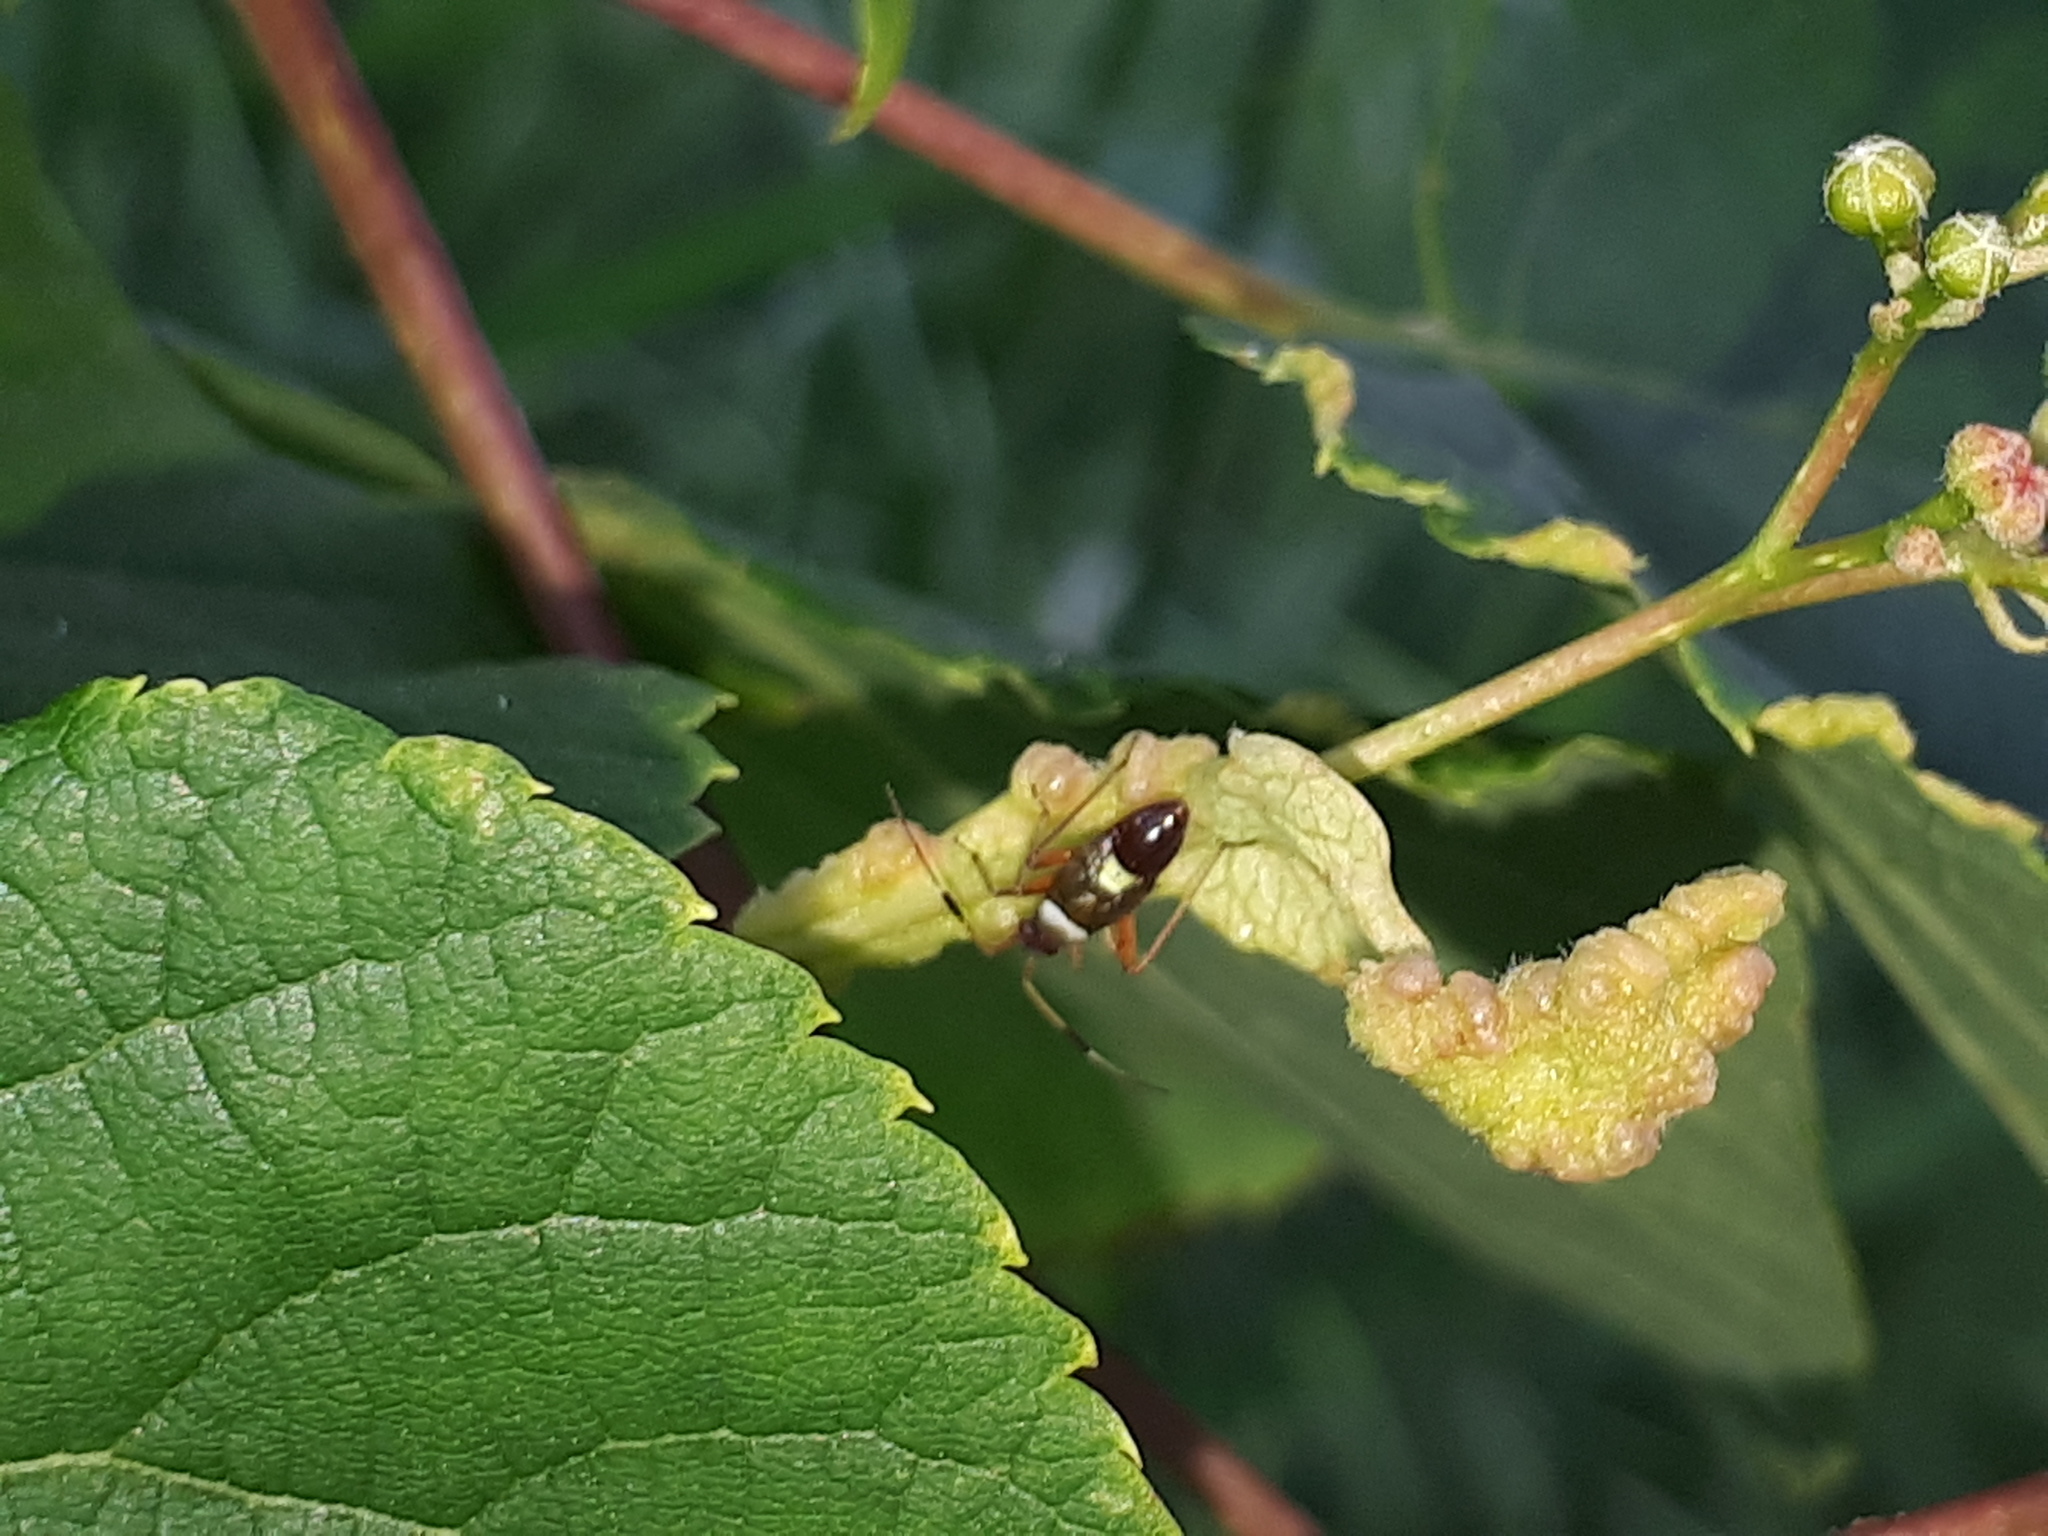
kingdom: Animalia
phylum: Arthropoda
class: Insecta
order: Hemiptera
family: Miridae
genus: Closterotomus
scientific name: Closterotomus biclavatus
